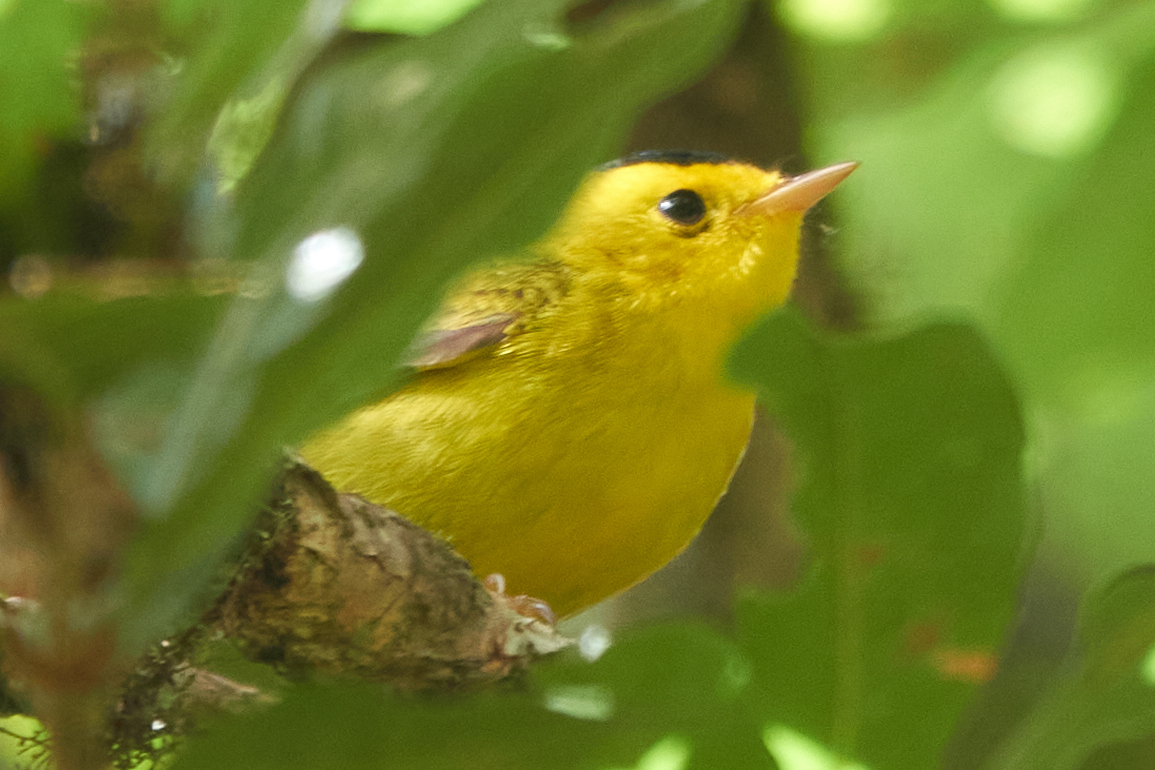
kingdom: Animalia
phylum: Chordata
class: Aves
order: Passeriformes
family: Parulidae
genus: Cardellina
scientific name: Cardellina pusilla
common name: Wilson's warbler
